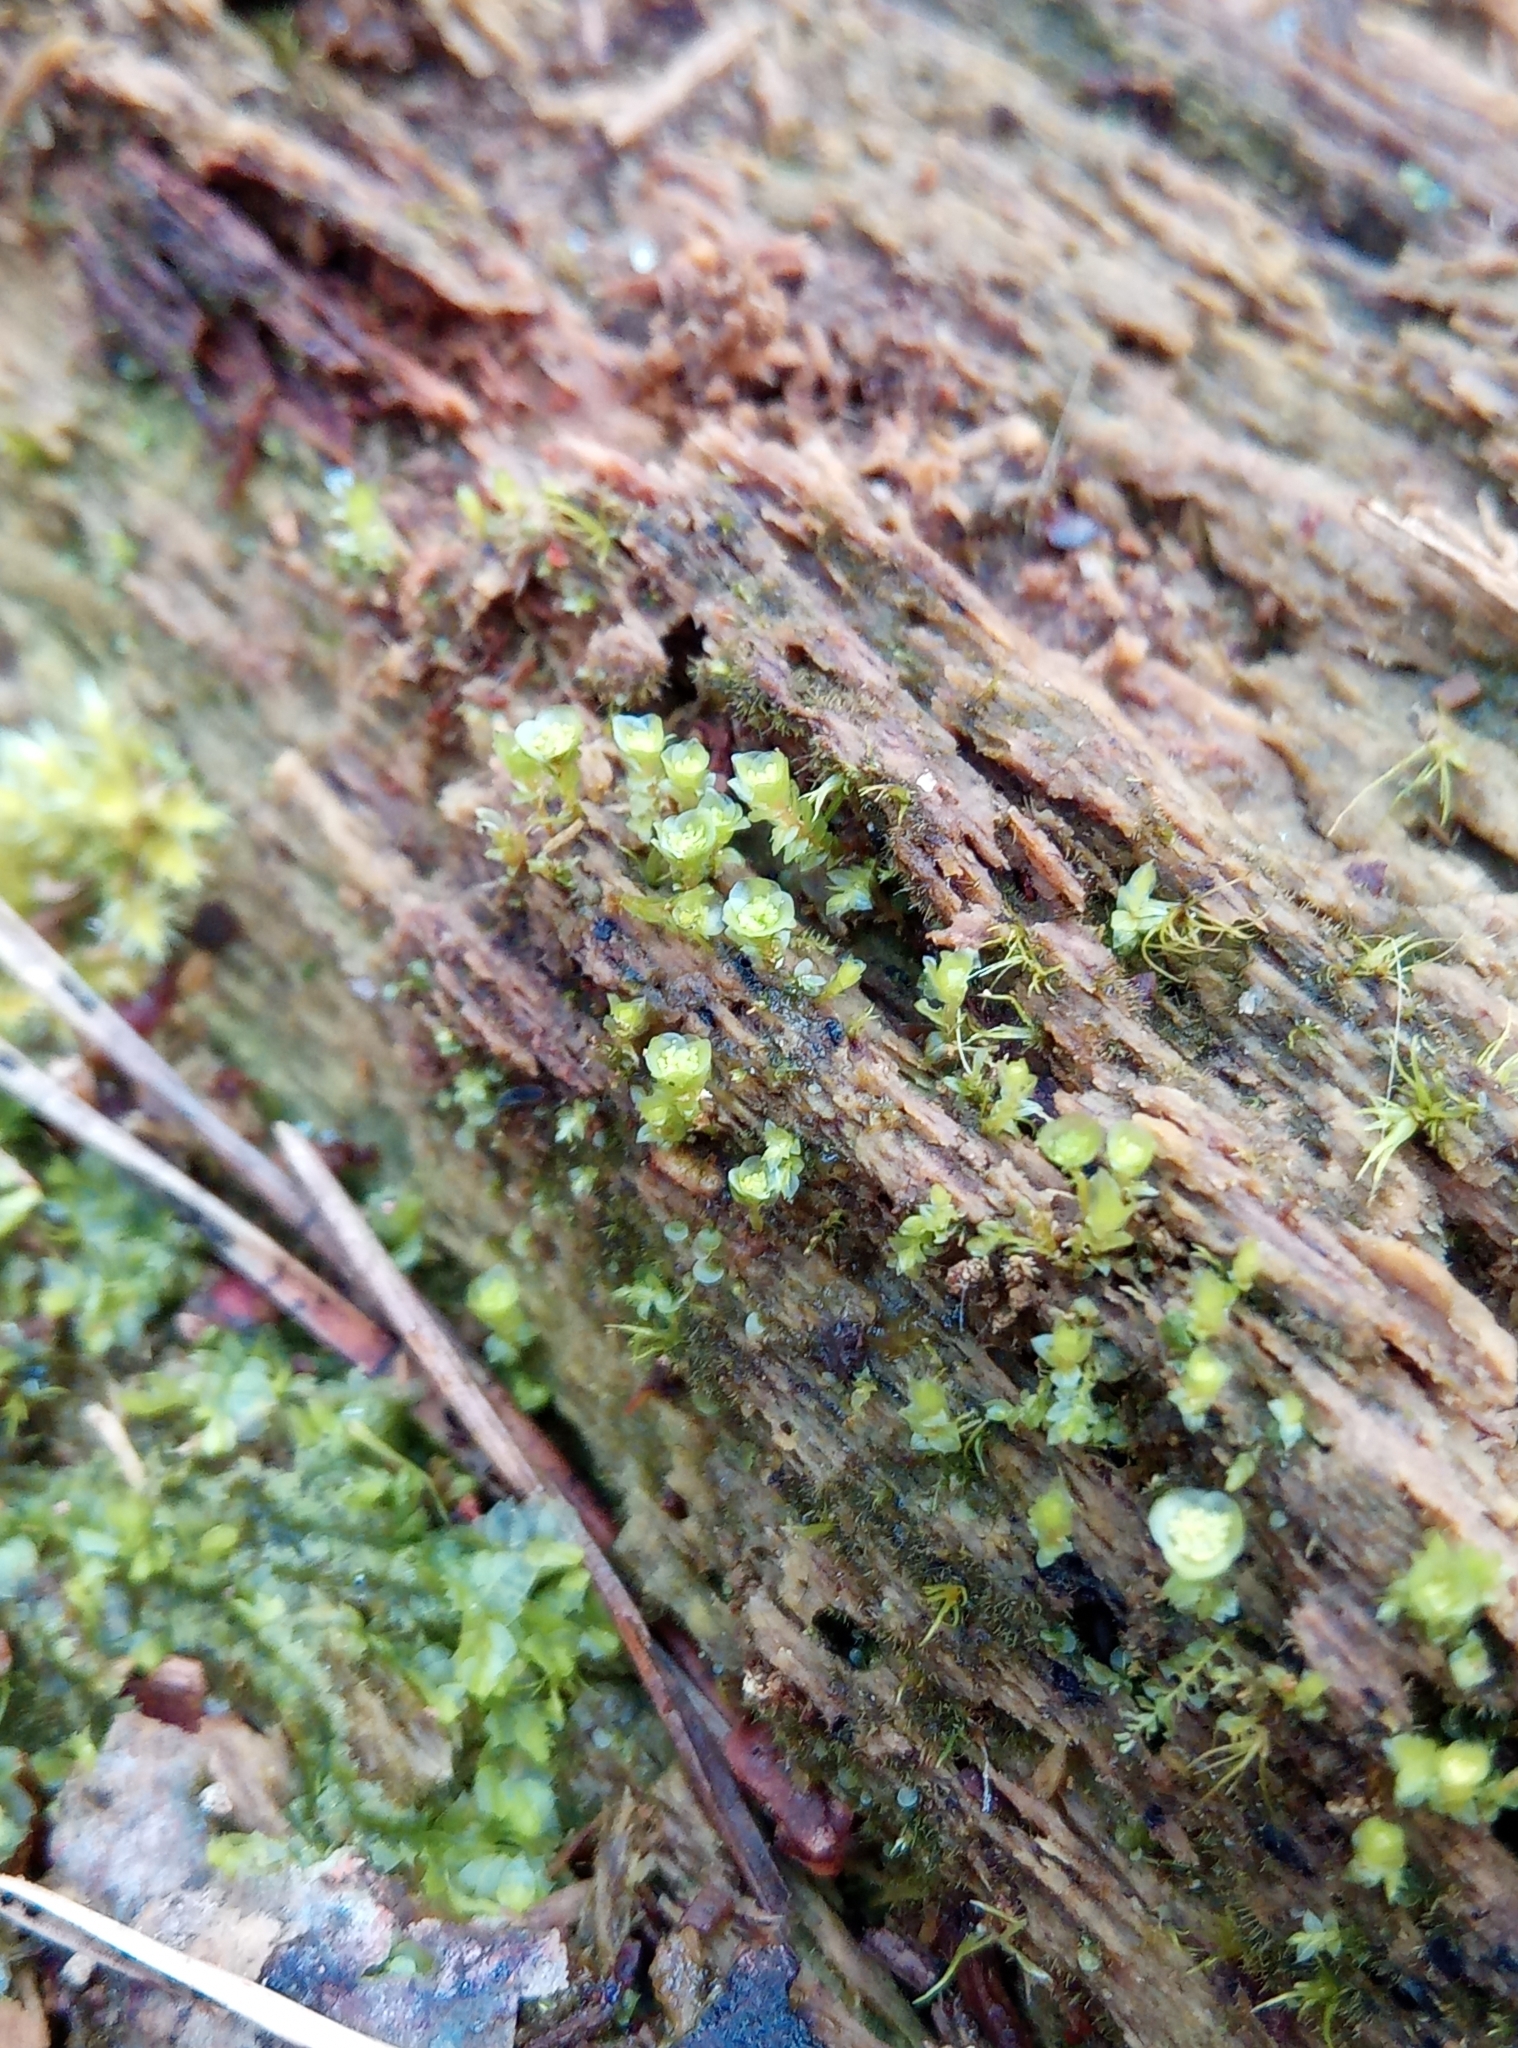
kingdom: Plantae
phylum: Bryophyta
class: Polytrichopsida
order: Tetraphidales
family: Tetraphidaceae
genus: Tetraphis
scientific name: Tetraphis pellucida
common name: Common four-toothed moss
